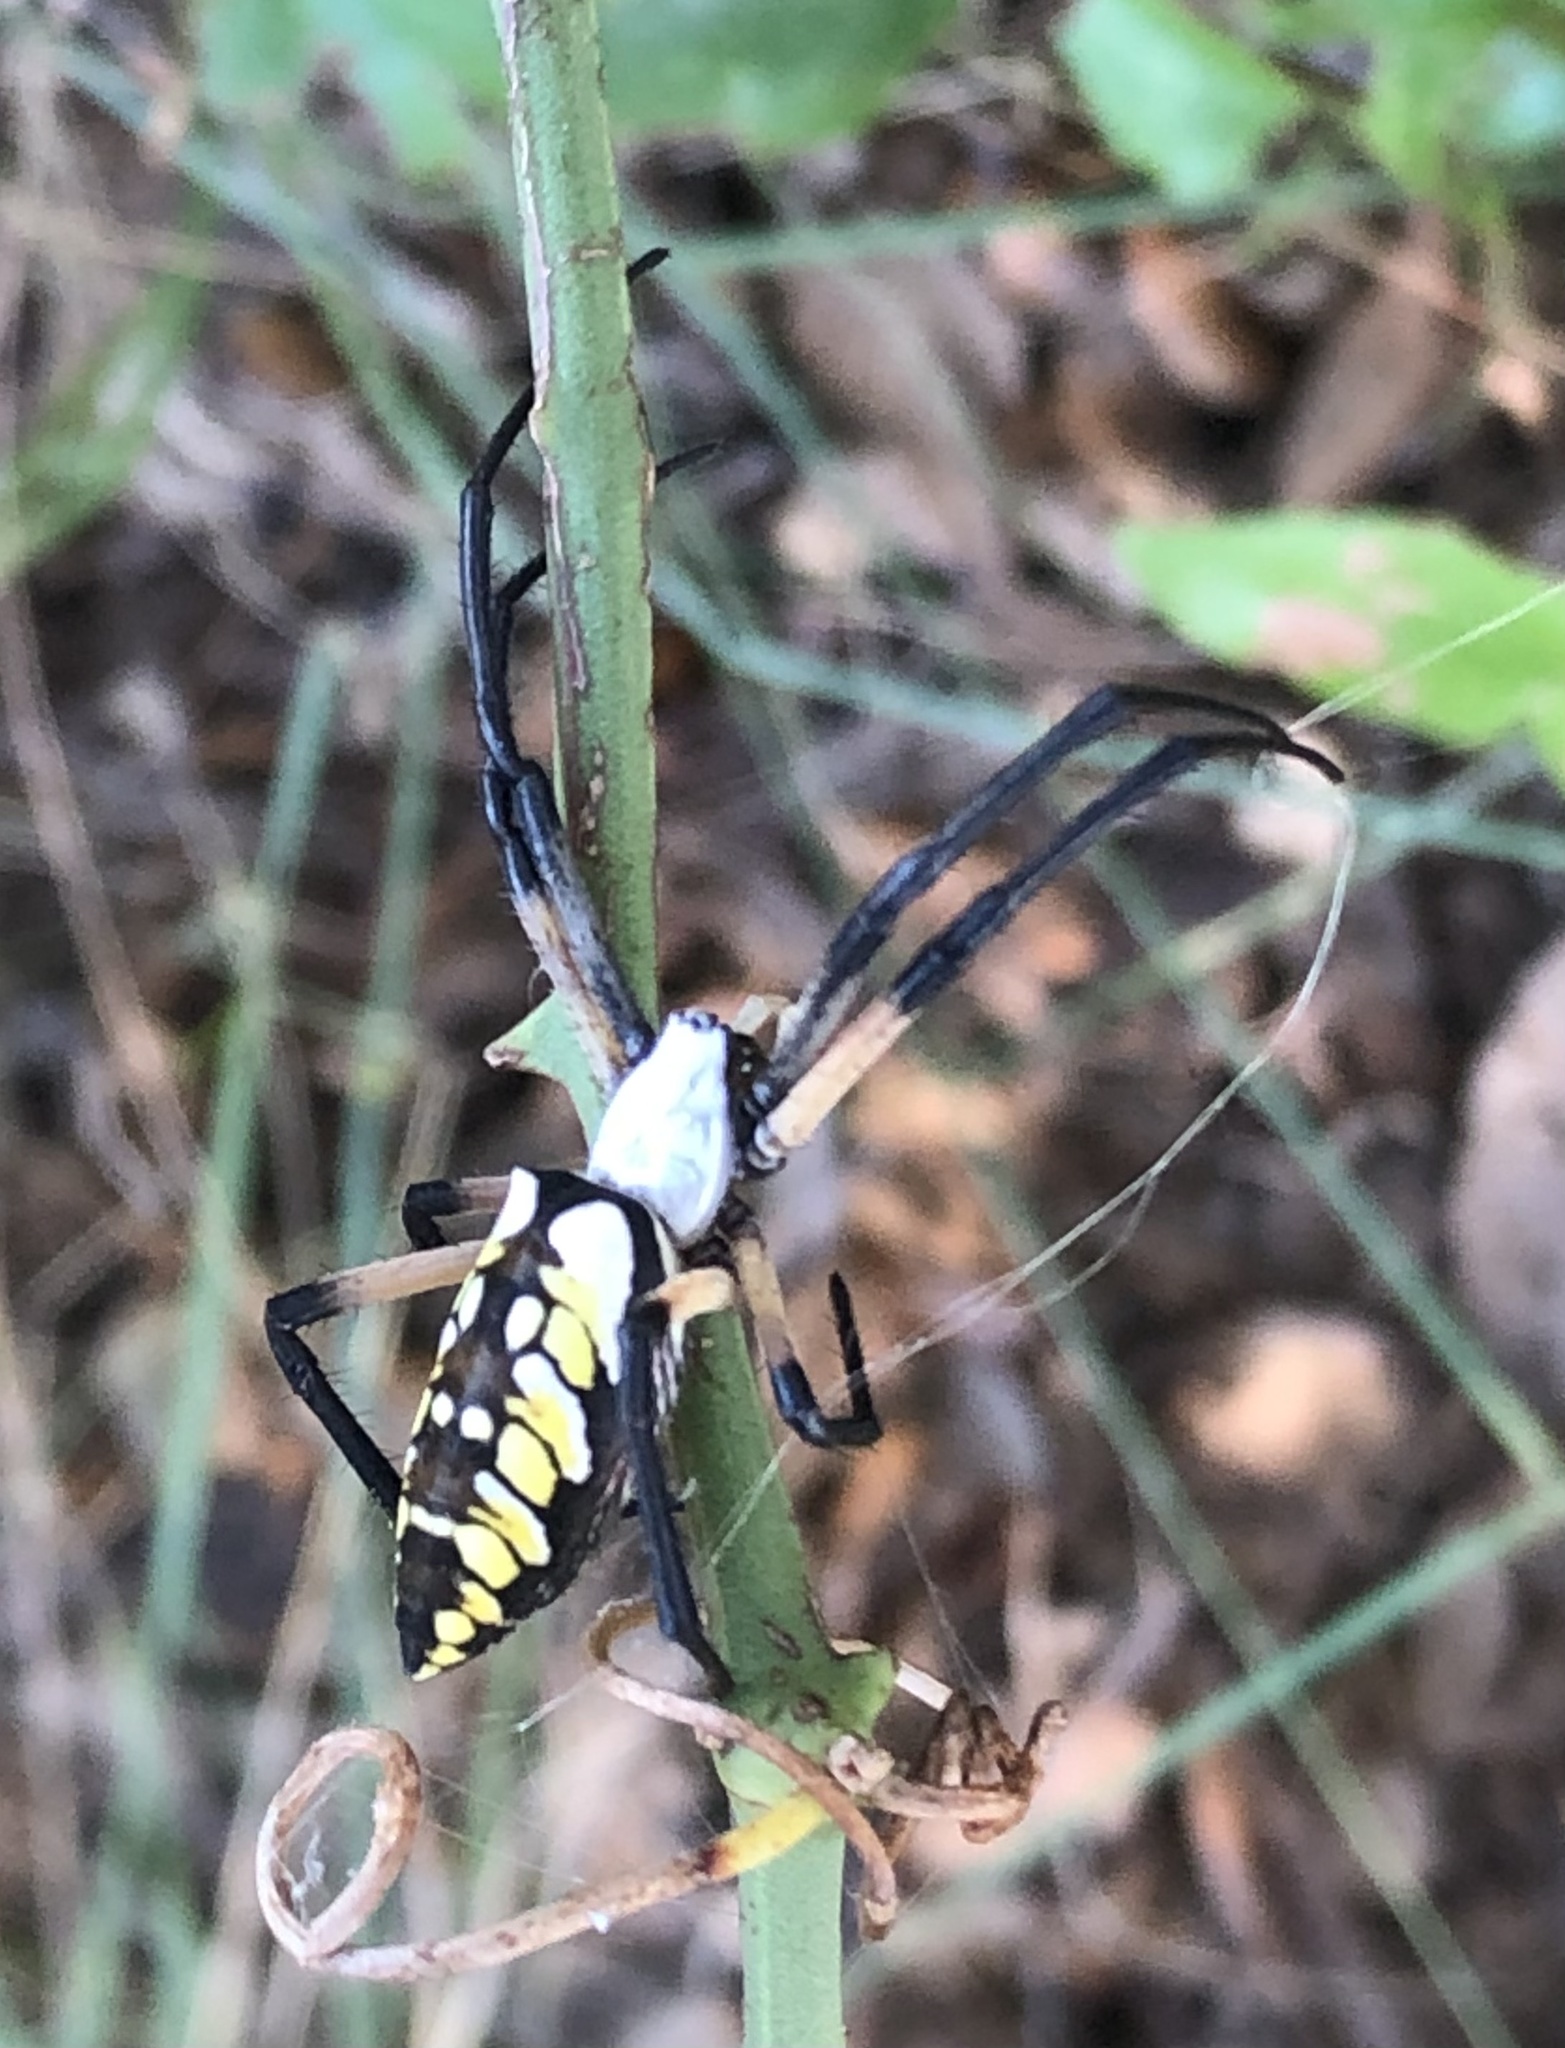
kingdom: Animalia
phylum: Arthropoda
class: Arachnida
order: Araneae
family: Araneidae
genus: Argiope
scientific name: Argiope aurantia
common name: Orb weavers
